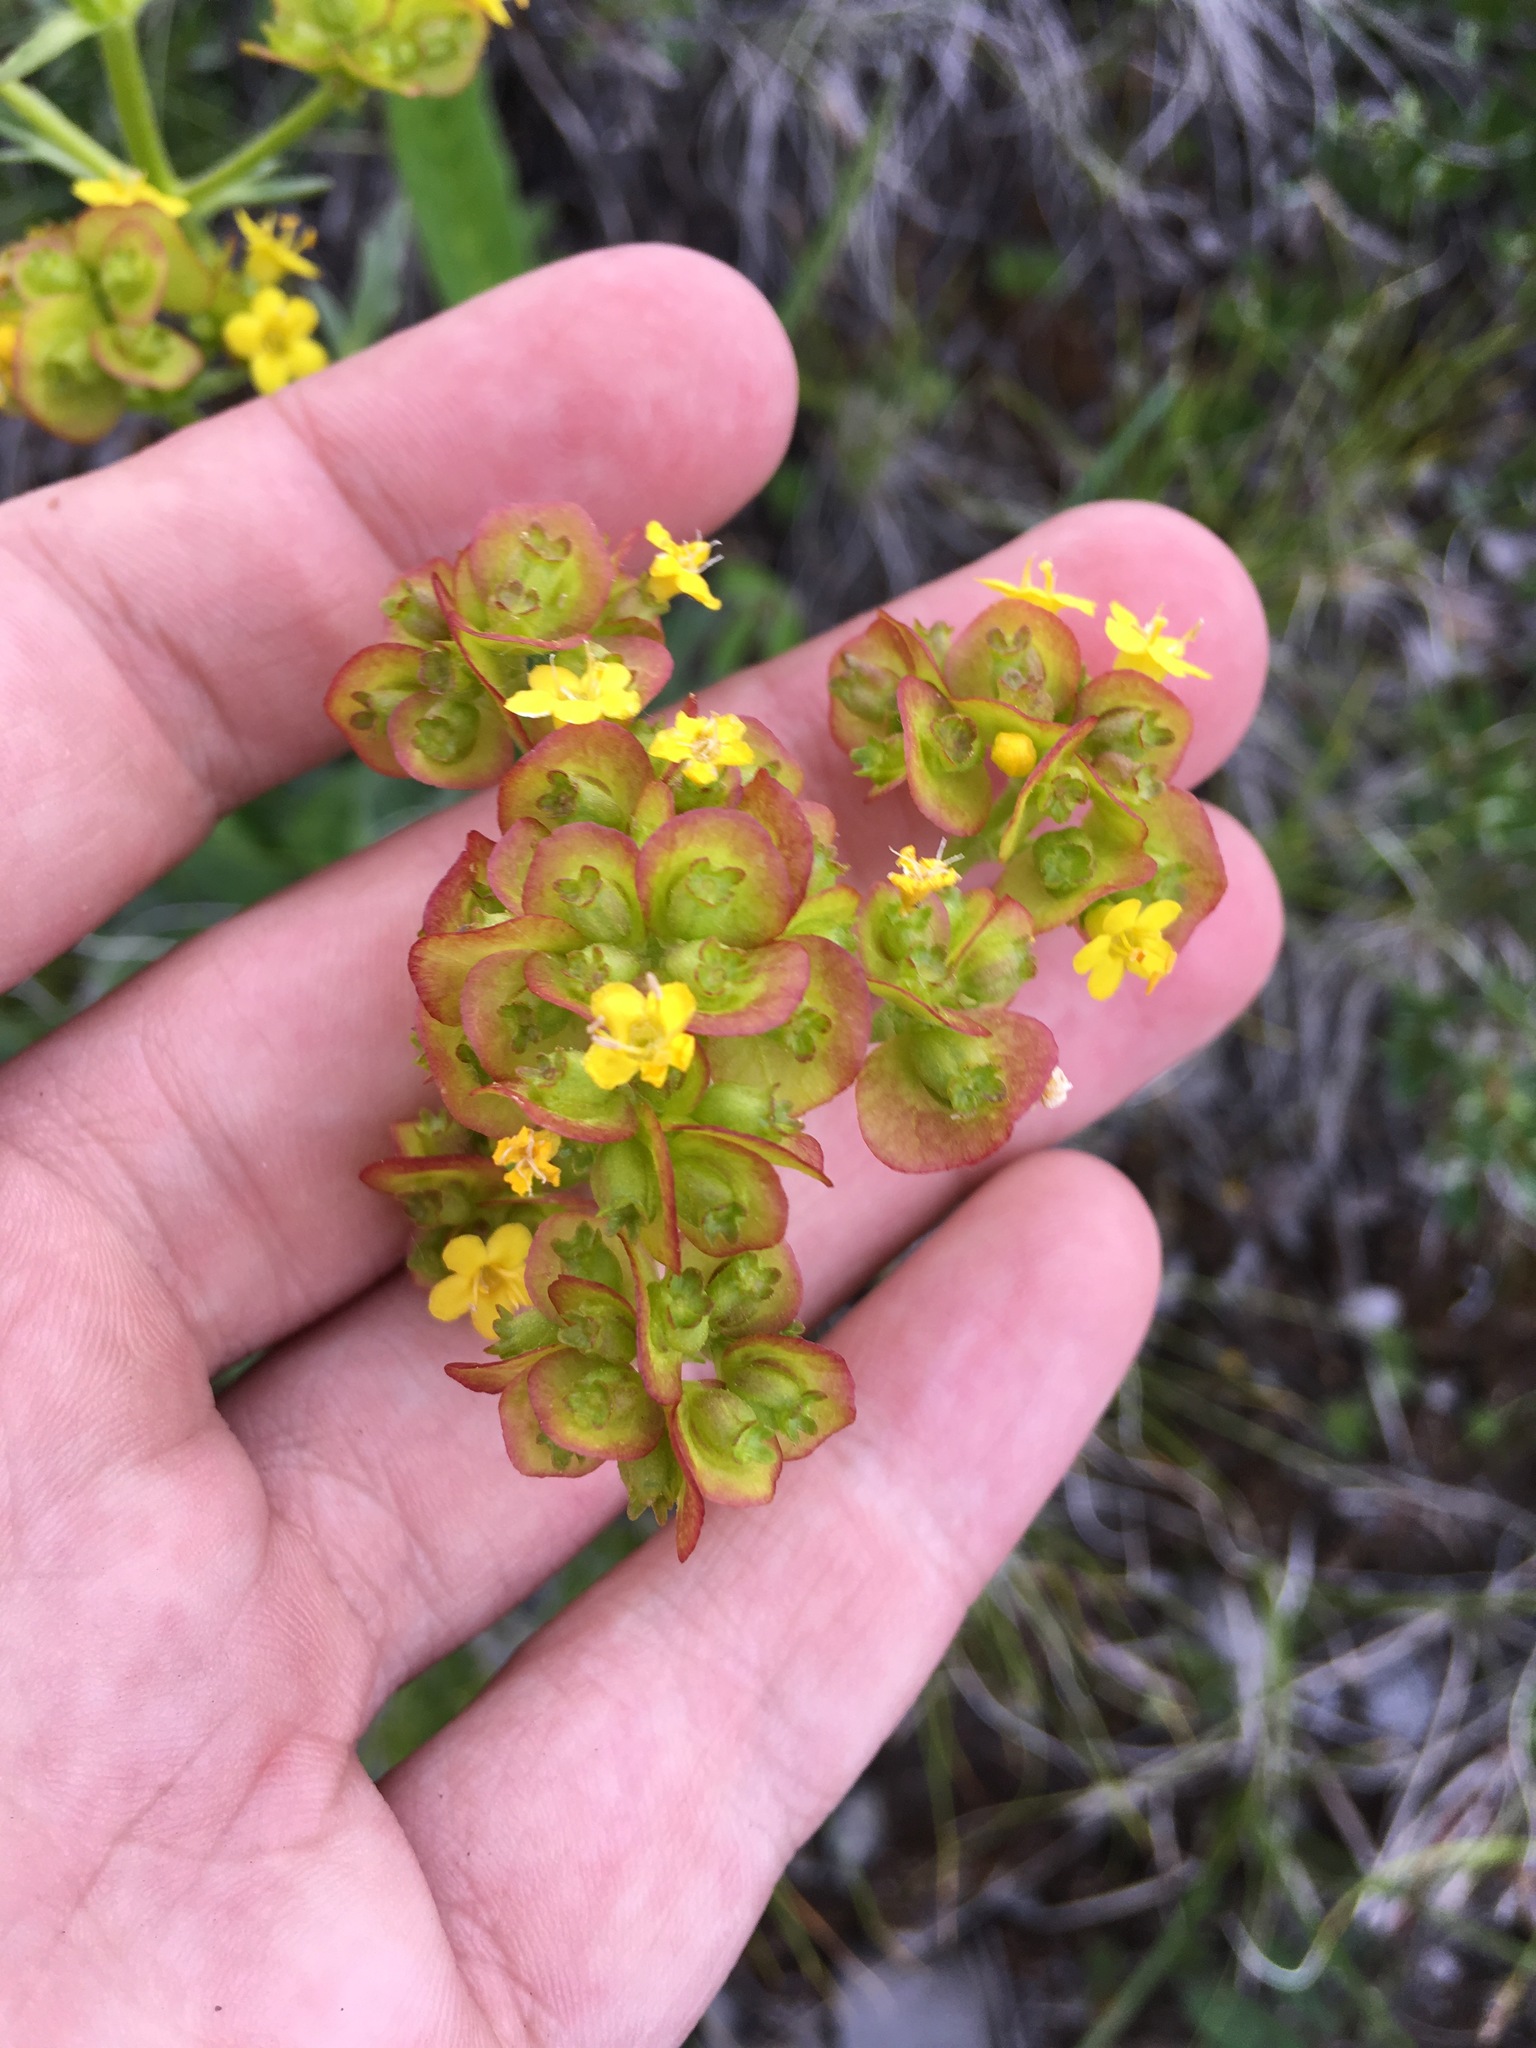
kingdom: Plantae
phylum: Tracheophyta
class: Magnoliopsida
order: Dipsacales
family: Caprifoliaceae
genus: Patrinia
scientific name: Patrinia sibirica
